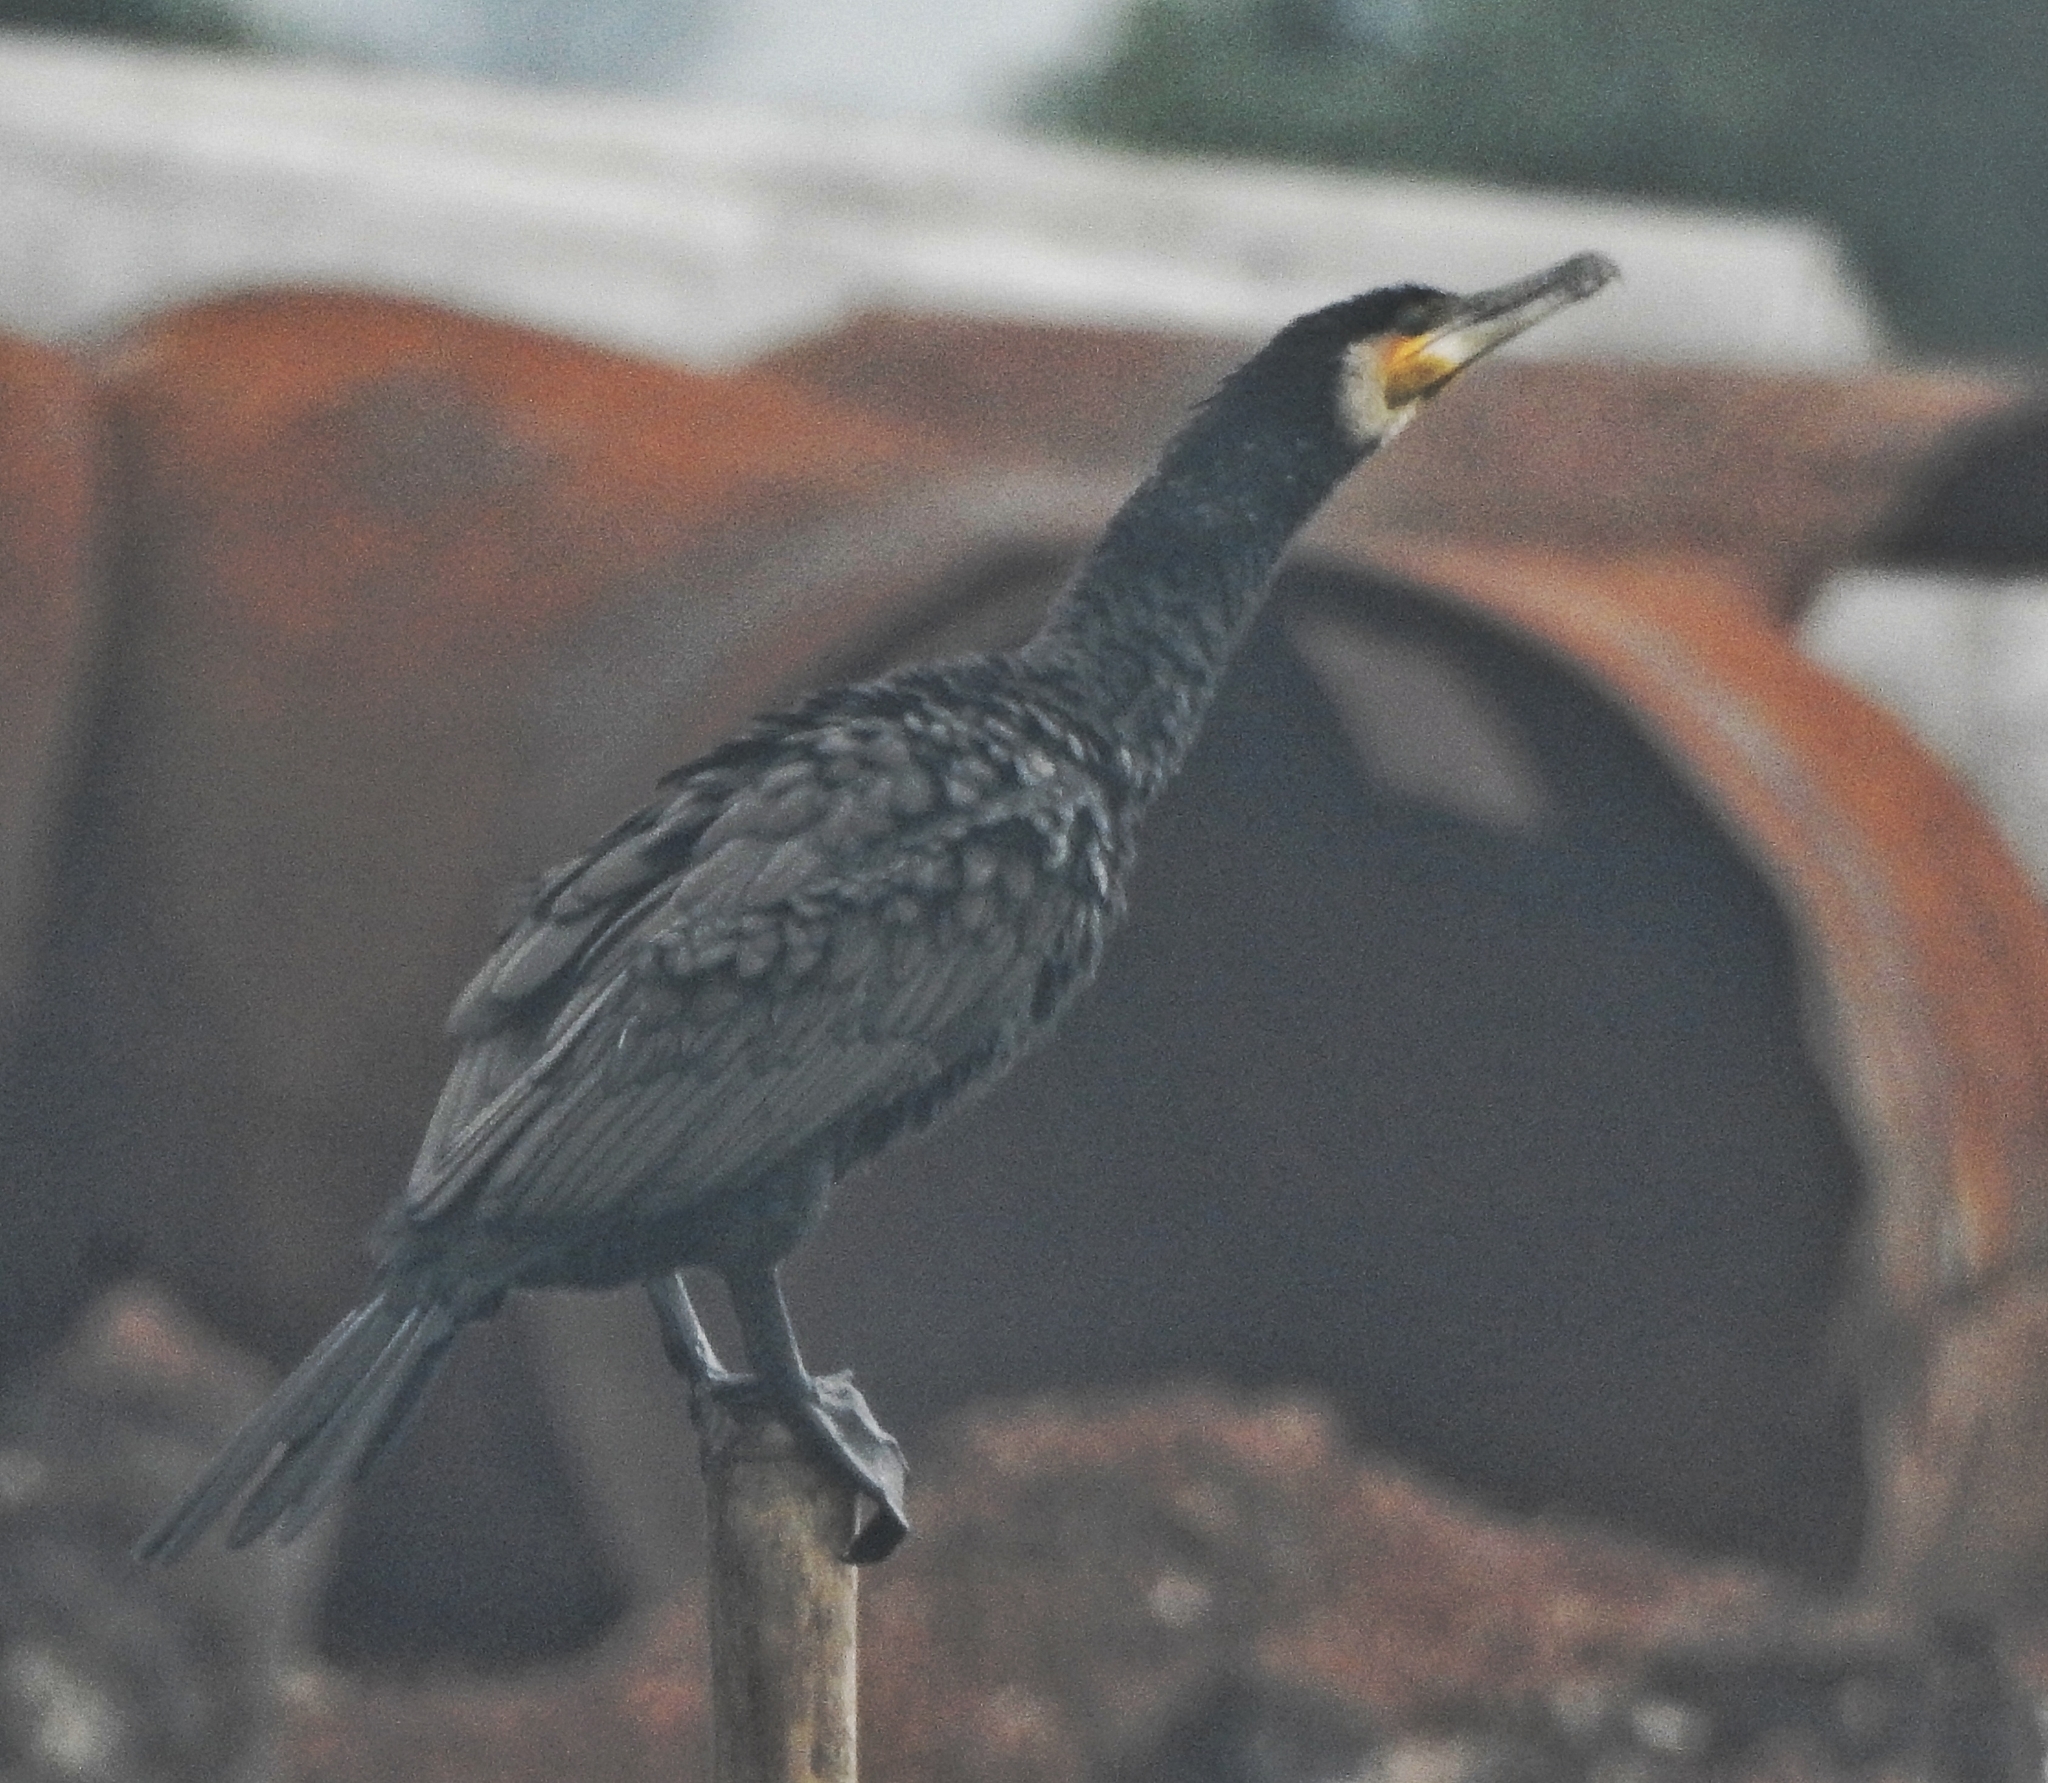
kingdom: Animalia
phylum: Chordata
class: Aves
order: Suliformes
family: Phalacrocoracidae
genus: Phalacrocorax
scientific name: Phalacrocorax carbo
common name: Great cormorant
